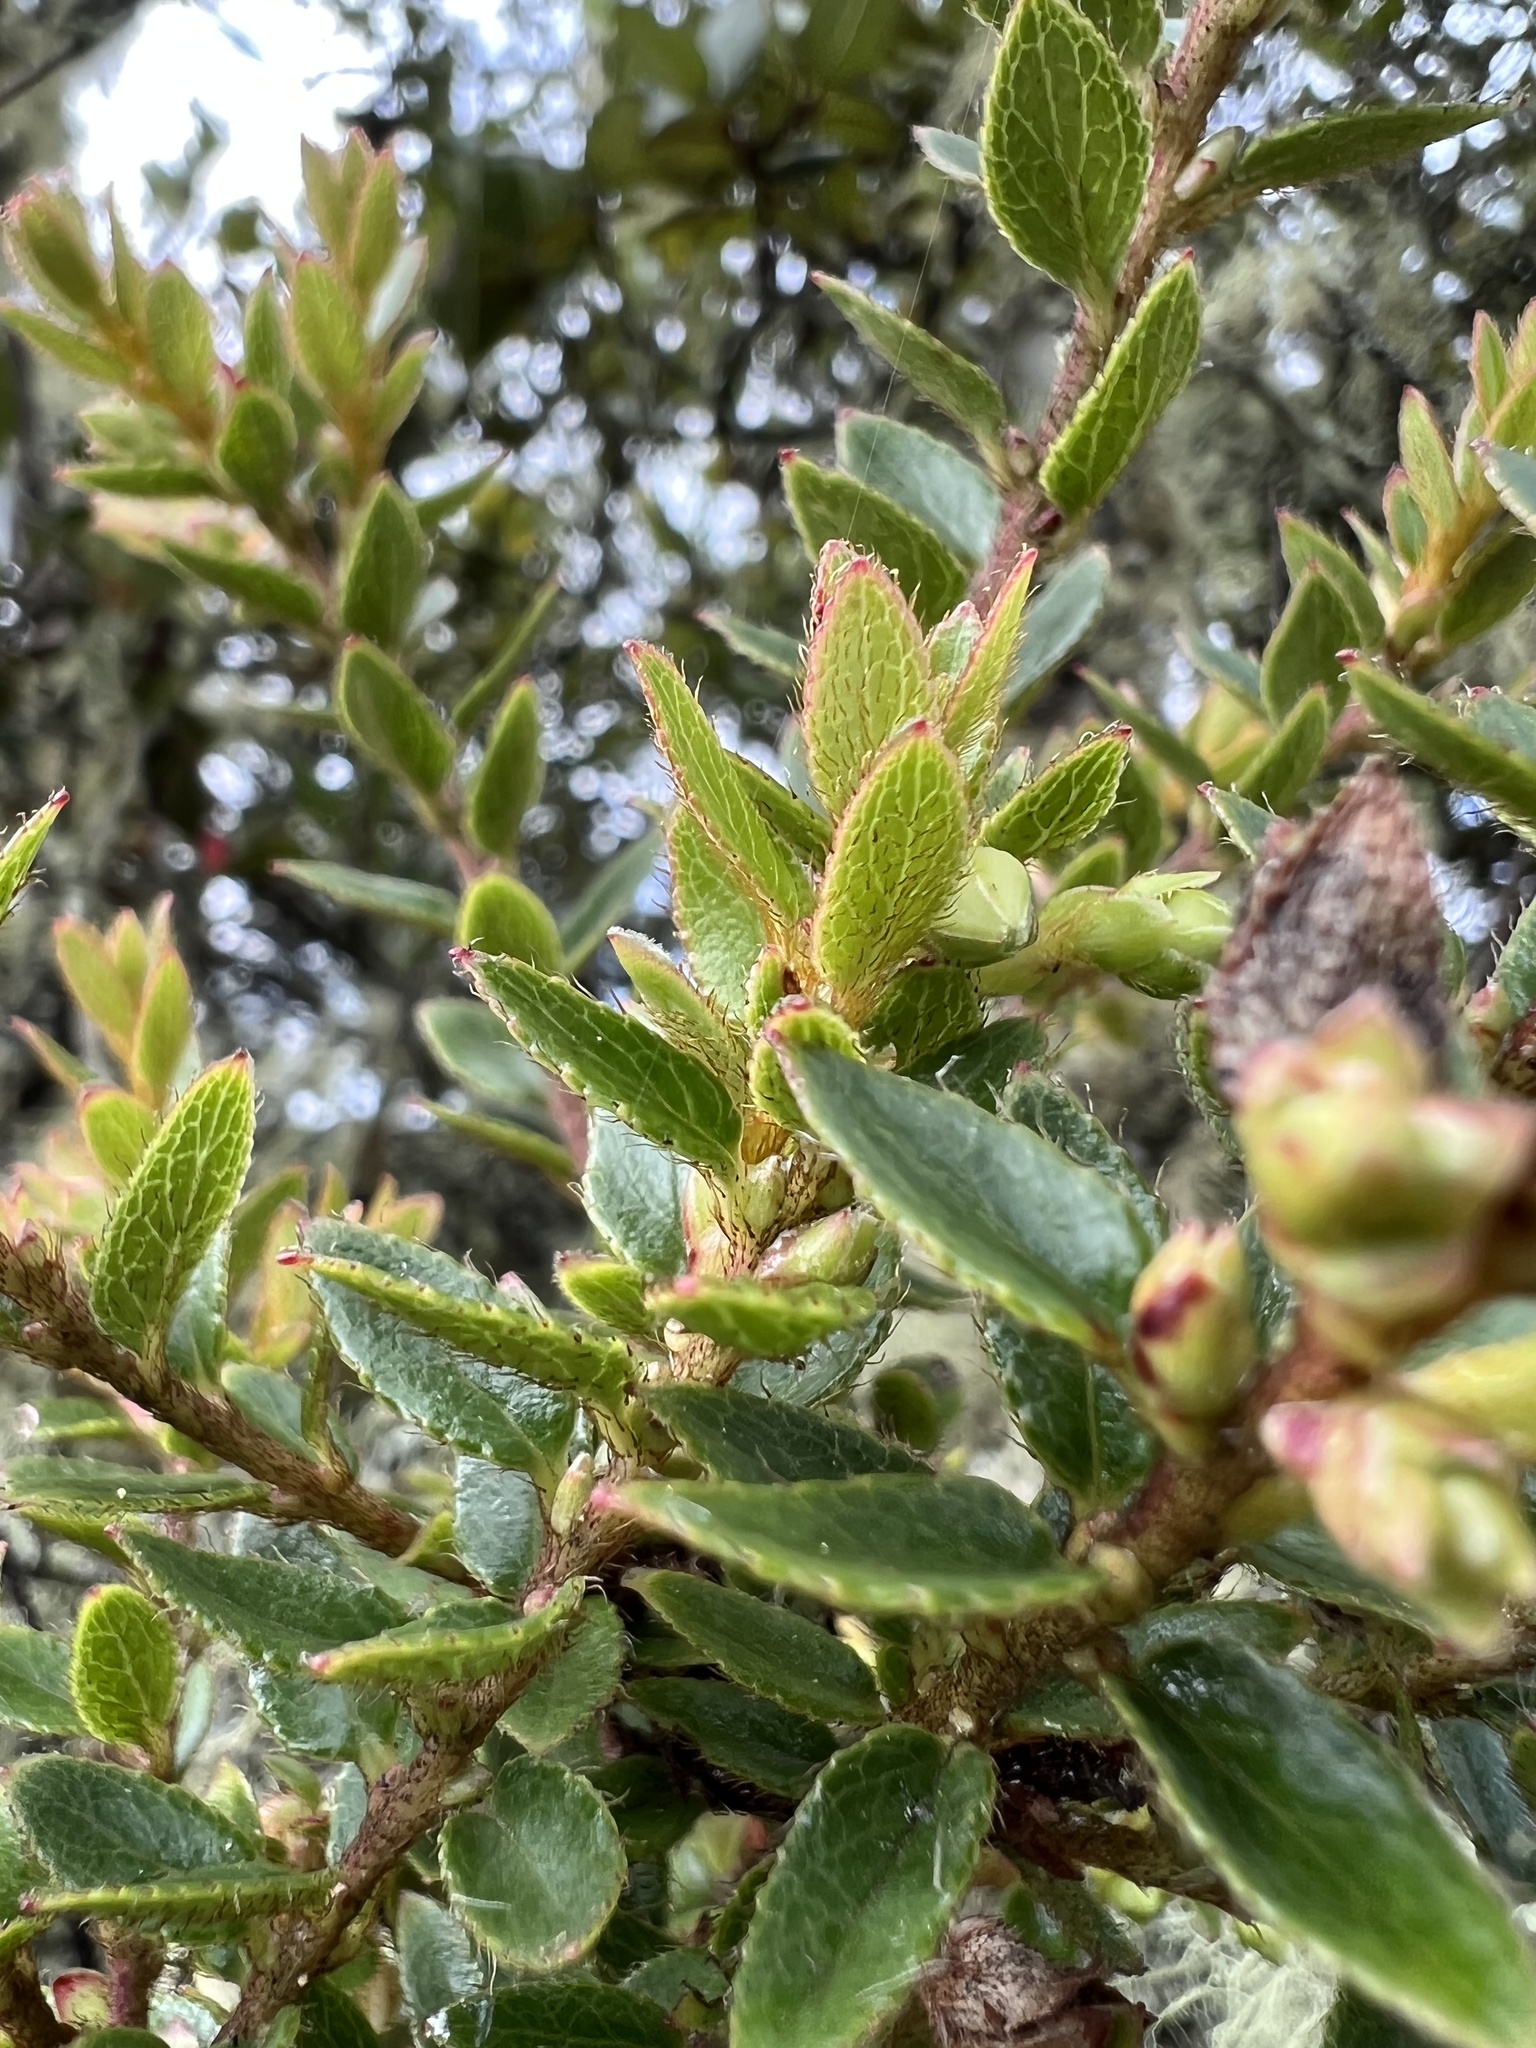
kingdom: Plantae
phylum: Tracheophyta
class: Magnoliopsida
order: Ericales
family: Ericaceae
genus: Gaultheria
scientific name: Gaultheria myrsinoides
